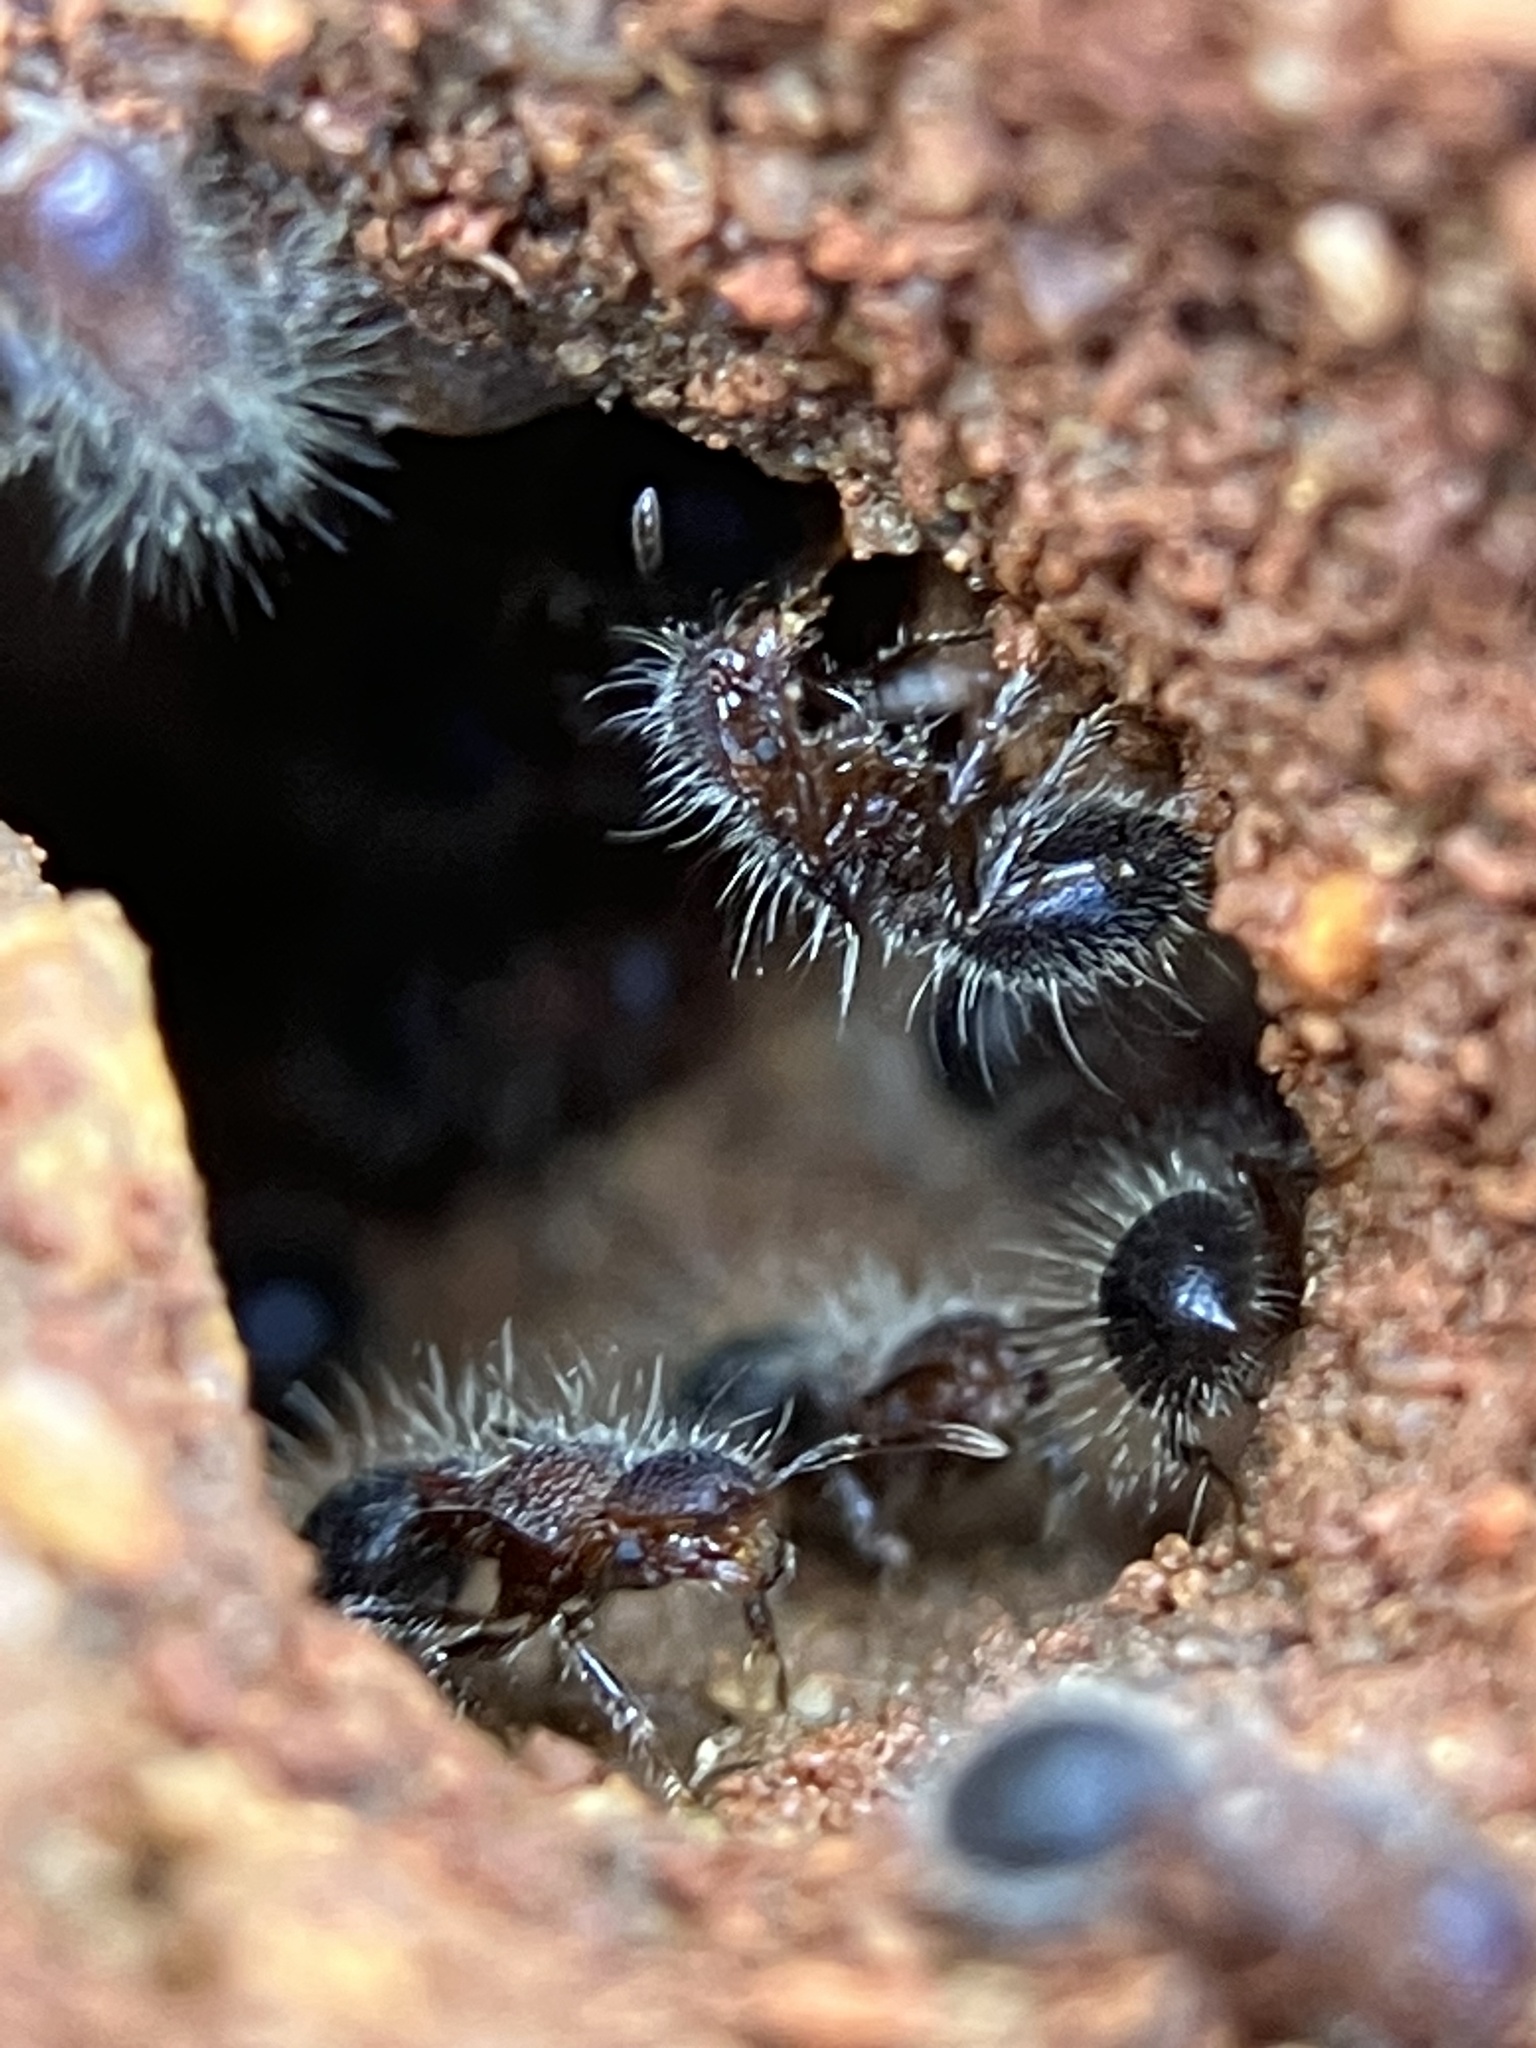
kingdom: Animalia
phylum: Arthropoda
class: Insecta
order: Hymenoptera
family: Formicidae
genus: Meranoplus
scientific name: Meranoplus bicolor
